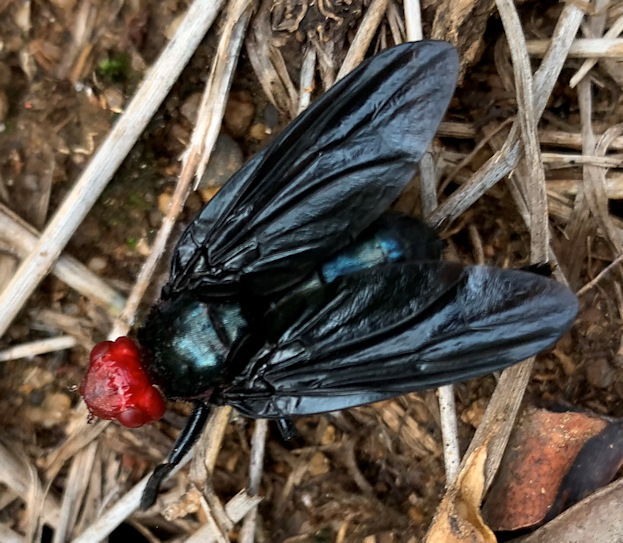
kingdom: Animalia
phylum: Arthropoda
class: Insecta
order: Diptera
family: Platystomatidae
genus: Bromophila
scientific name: Bromophila caffra
